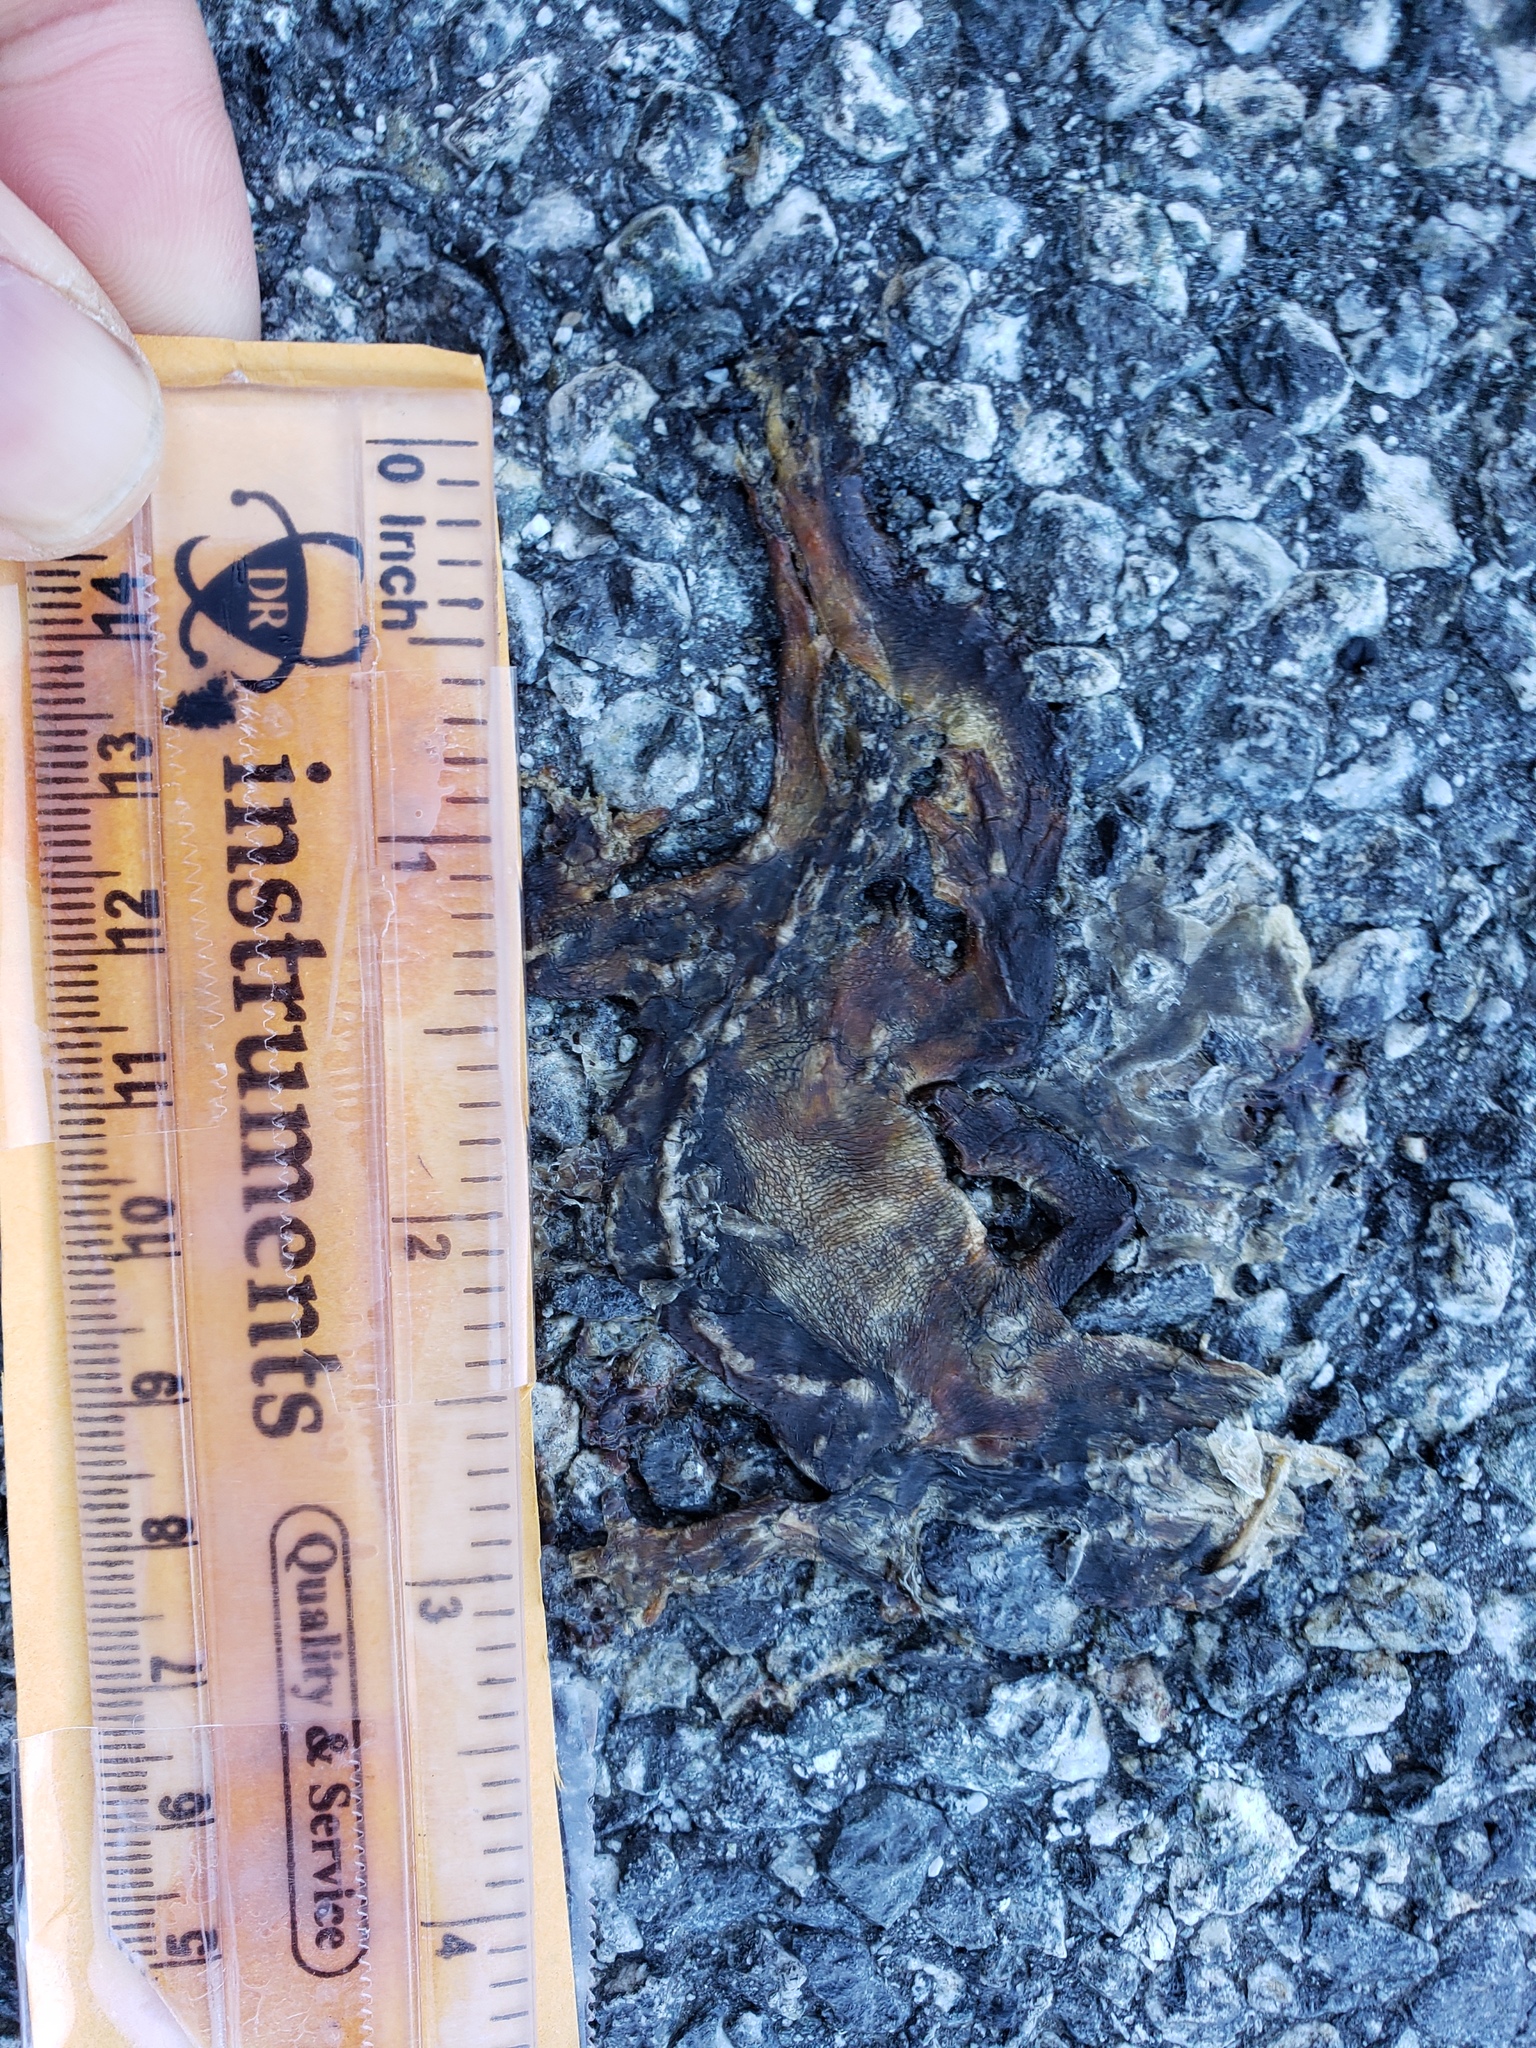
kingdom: Animalia
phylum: Chordata
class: Amphibia
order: Caudata
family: Salamandridae
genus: Taricha
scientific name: Taricha
